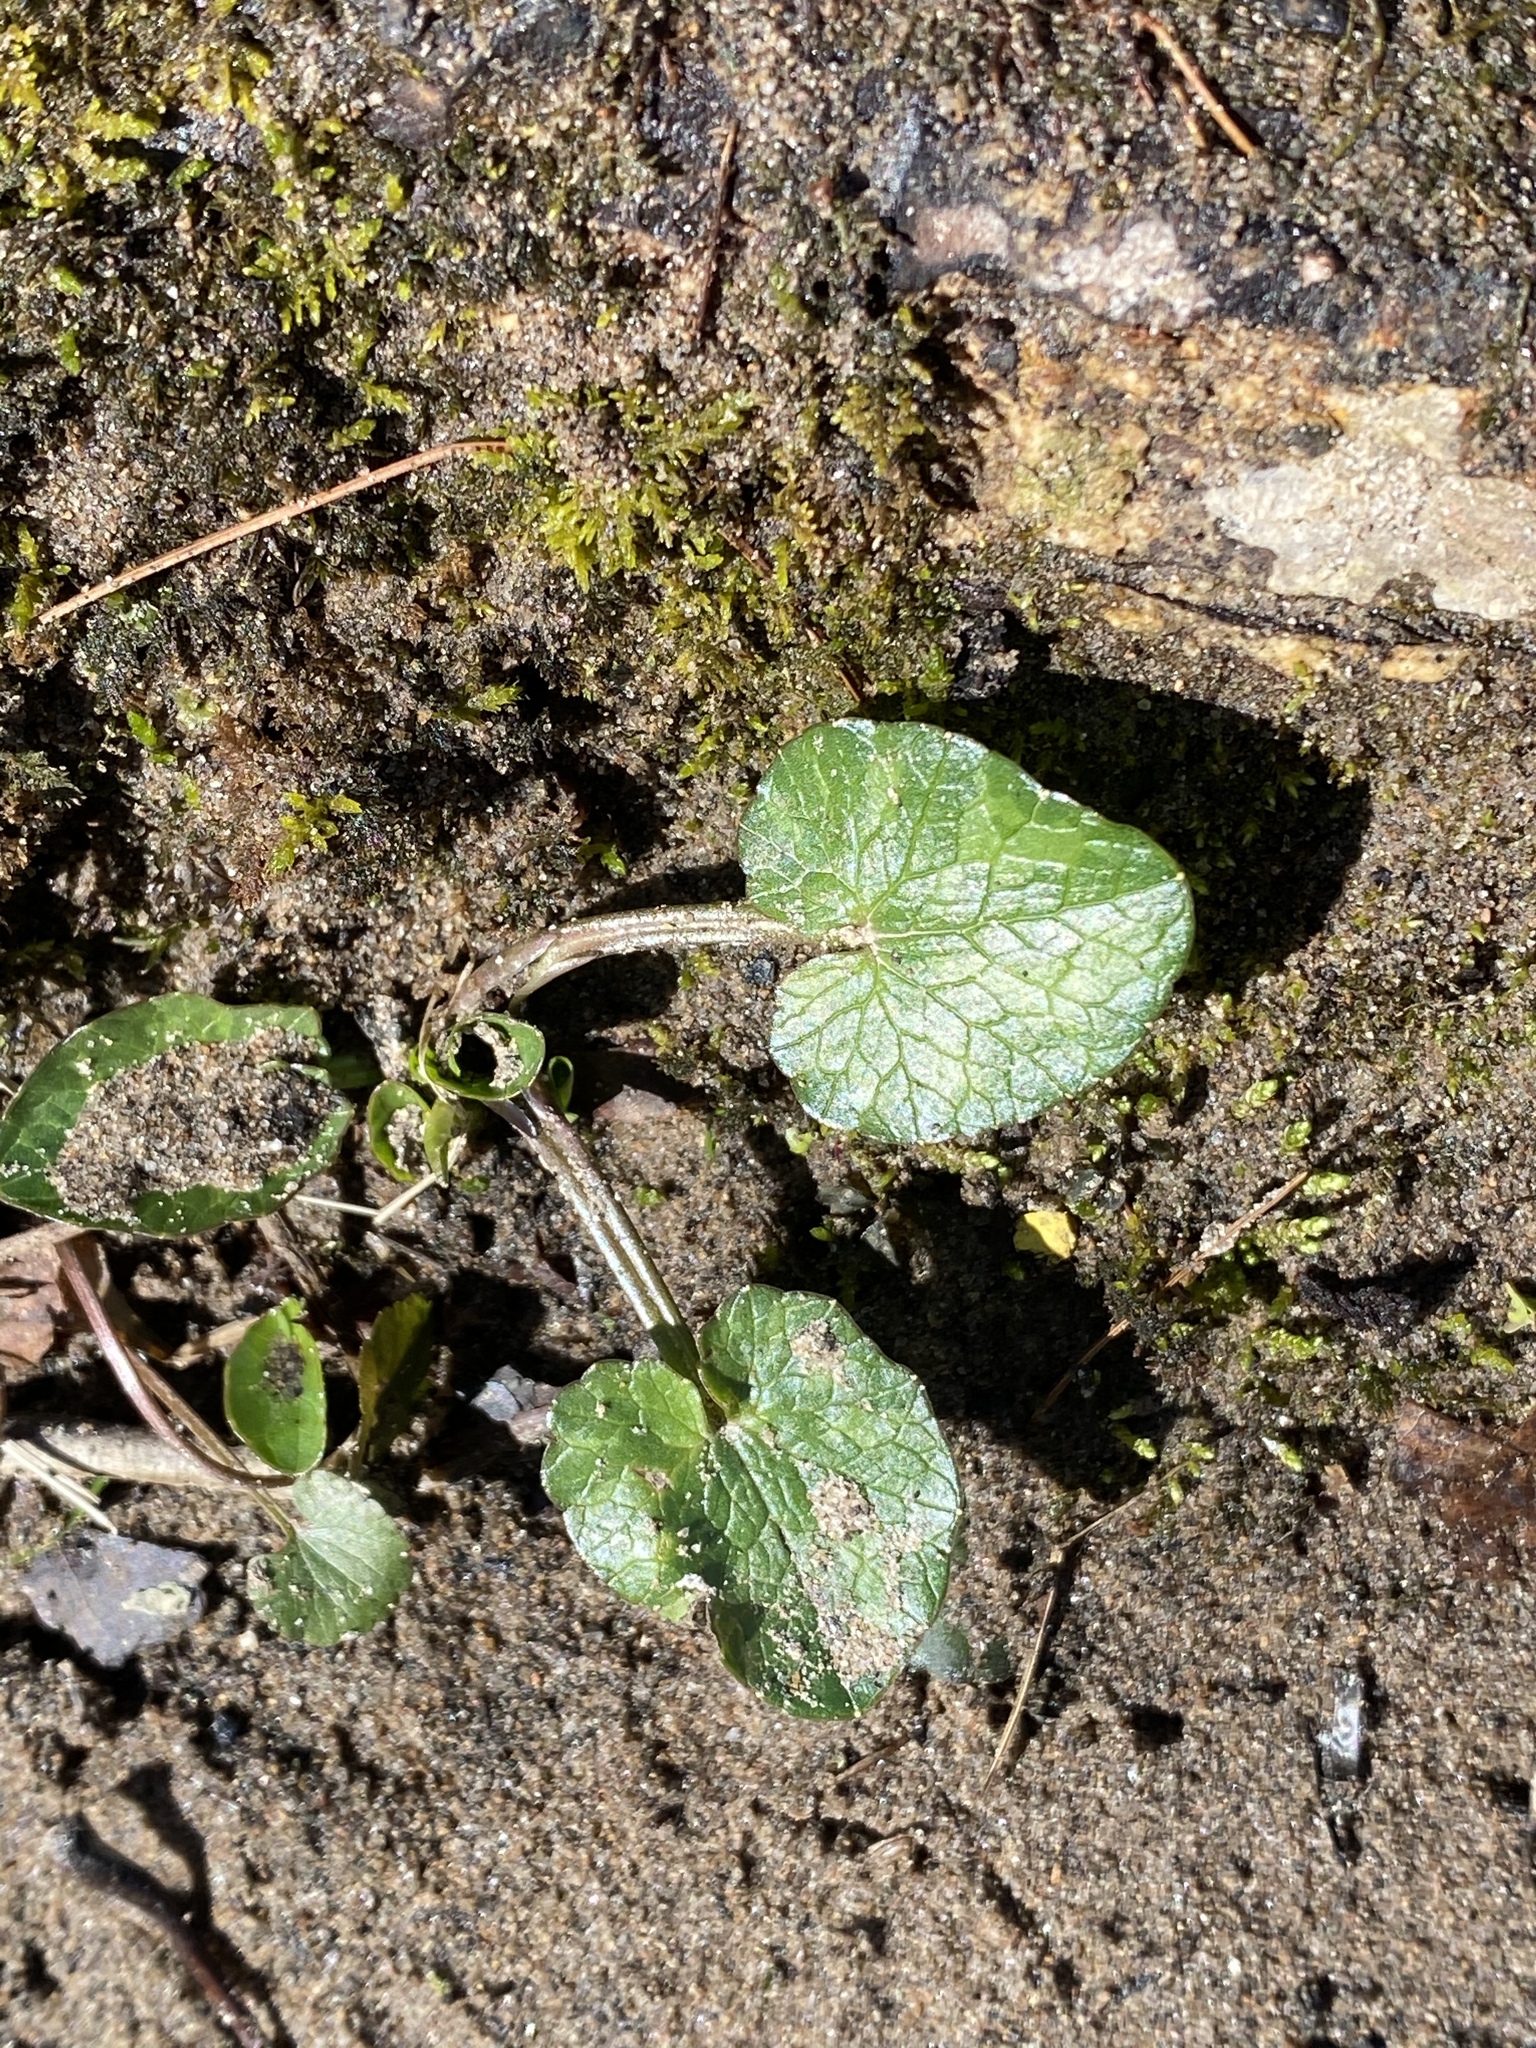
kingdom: Plantae
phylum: Tracheophyta
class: Magnoliopsida
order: Ranunculales
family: Ranunculaceae
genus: Ficaria
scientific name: Ficaria verna
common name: Lesser celandine
